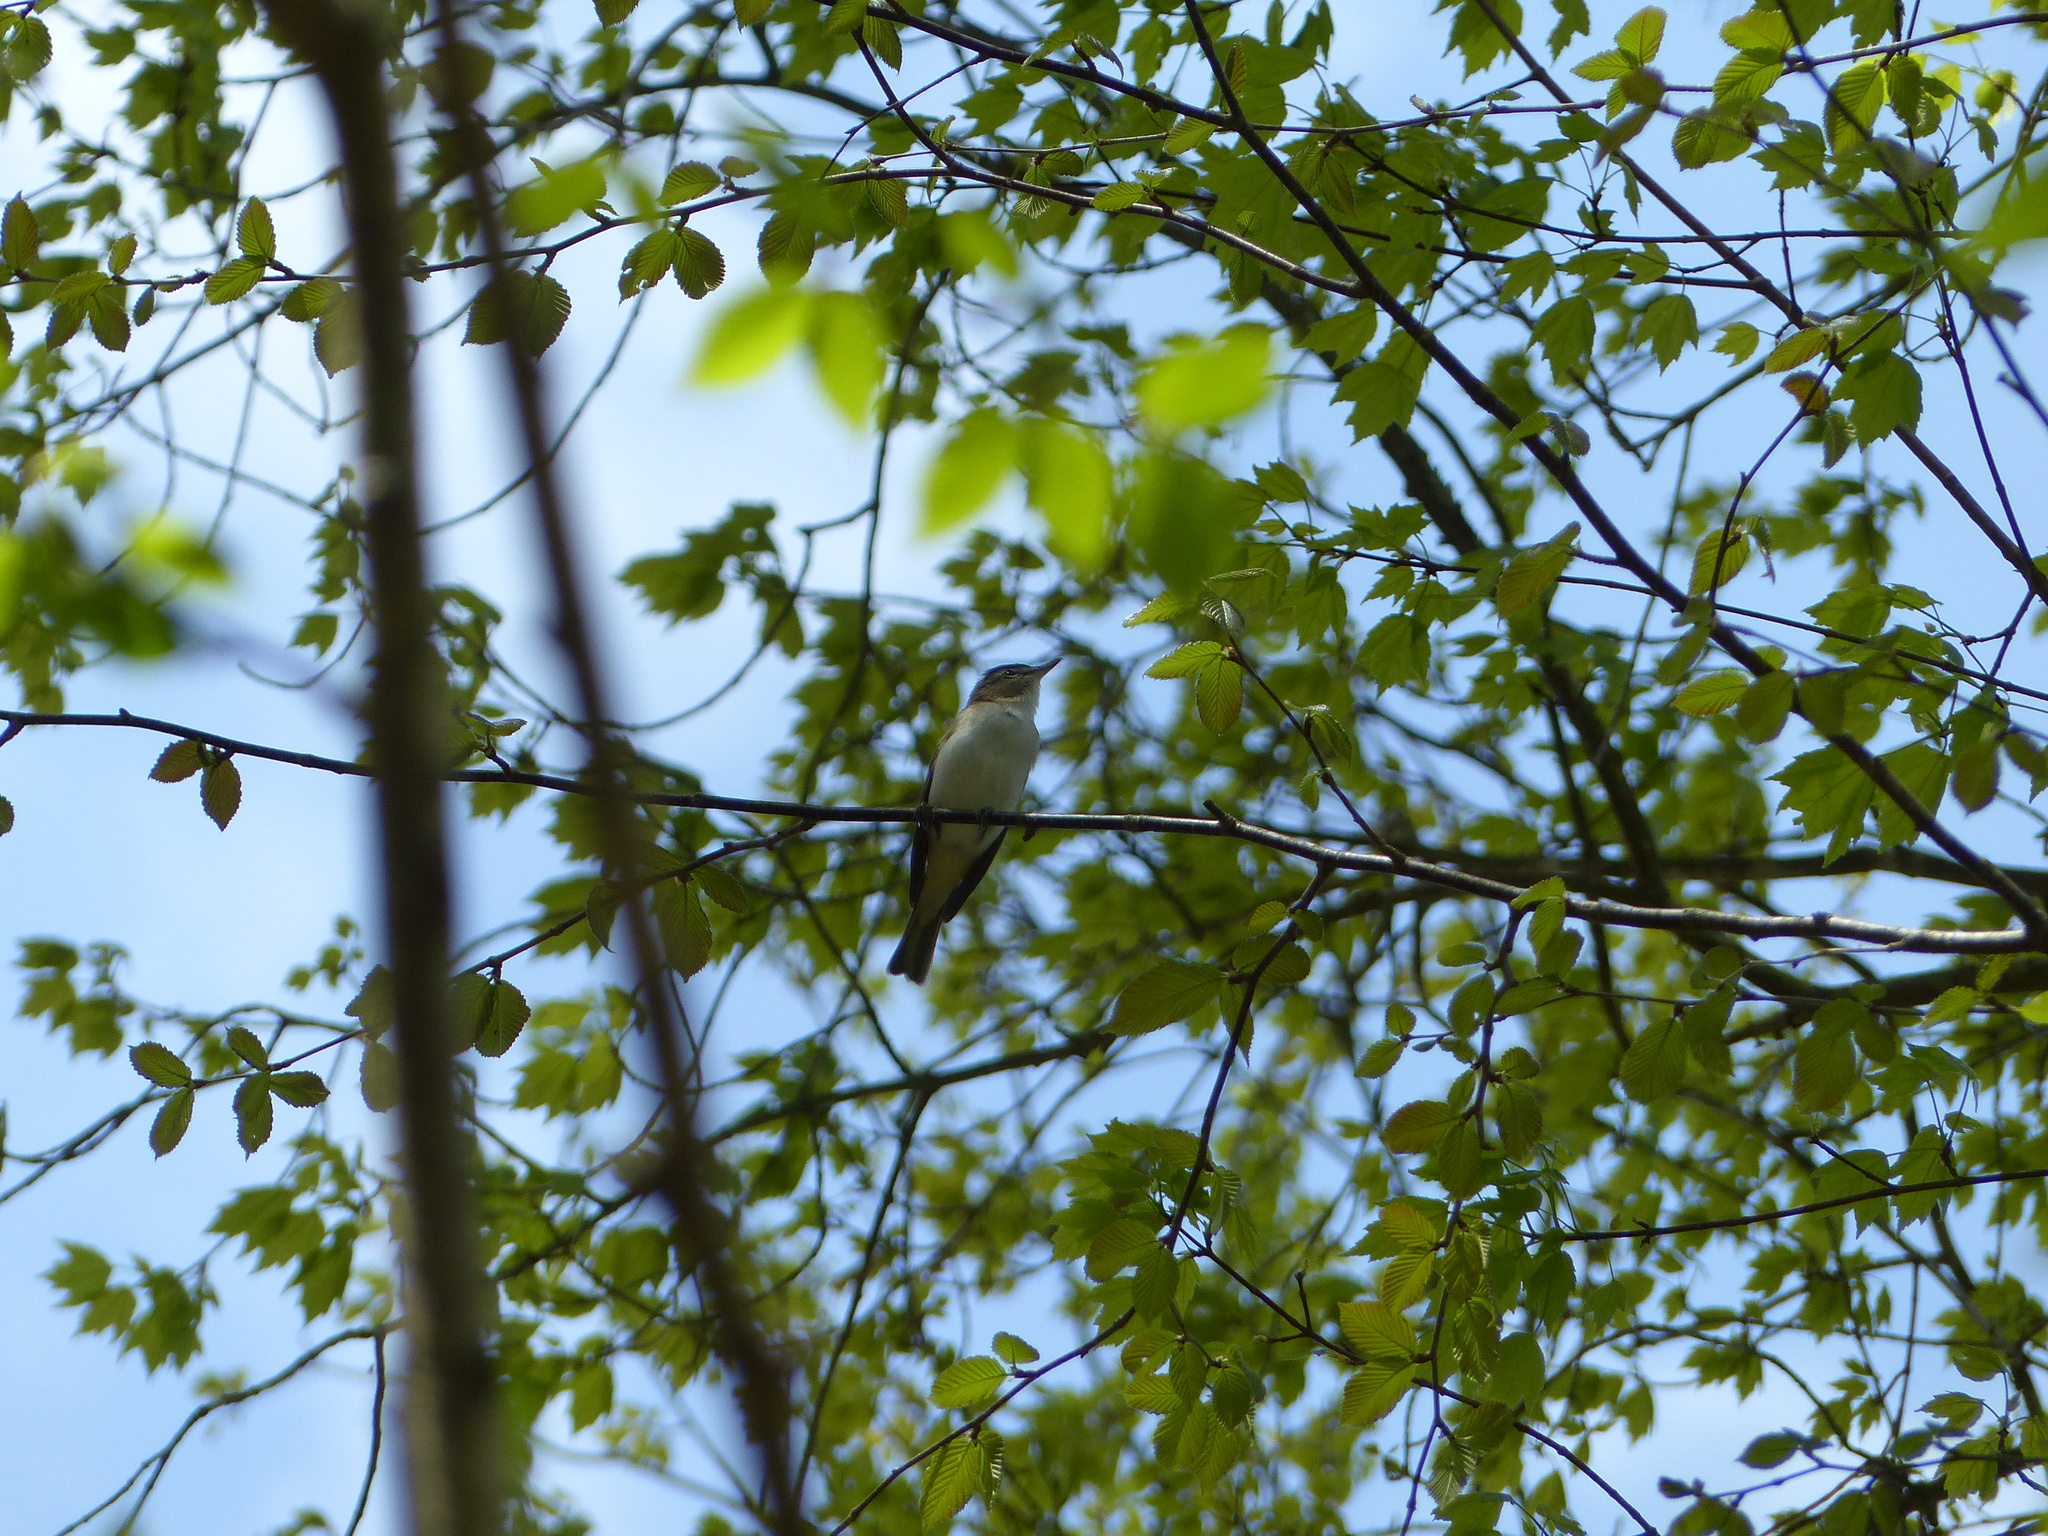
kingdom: Animalia
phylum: Chordata
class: Aves
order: Passeriformes
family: Vireonidae
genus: Vireo
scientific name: Vireo olivaceus
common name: Red-eyed vireo
